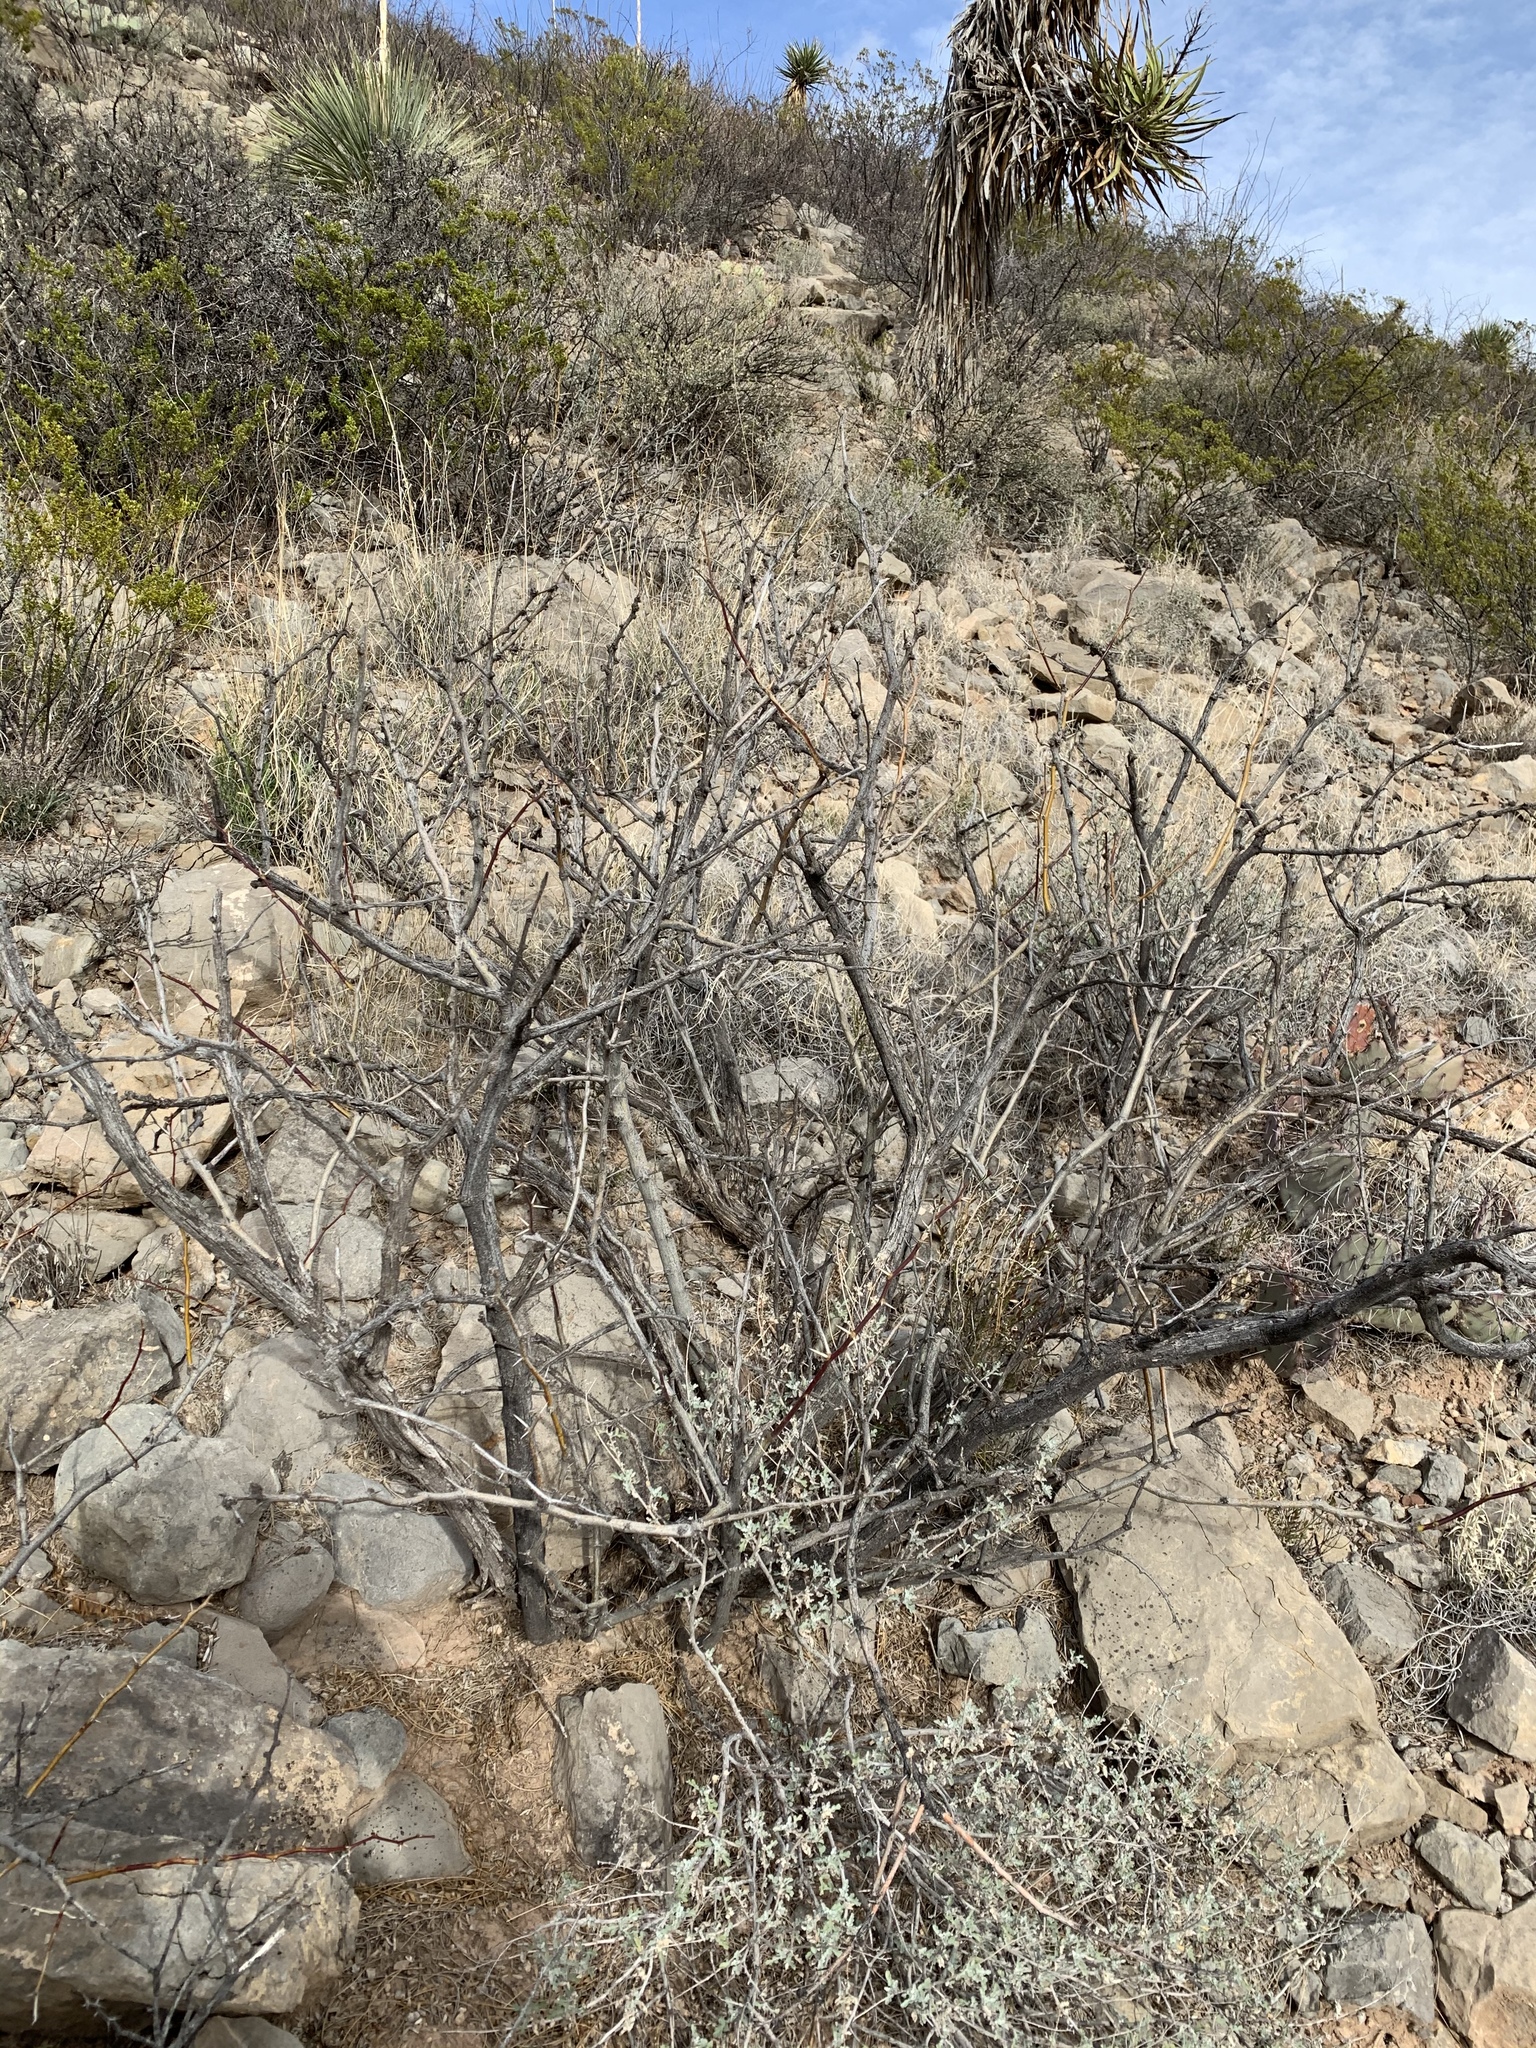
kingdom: Plantae
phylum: Tracheophyta
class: Magnoliopsida
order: Fabales
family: Fabaceae
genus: Prosopis
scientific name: Prosopis glandulosa
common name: Honey mesquite
